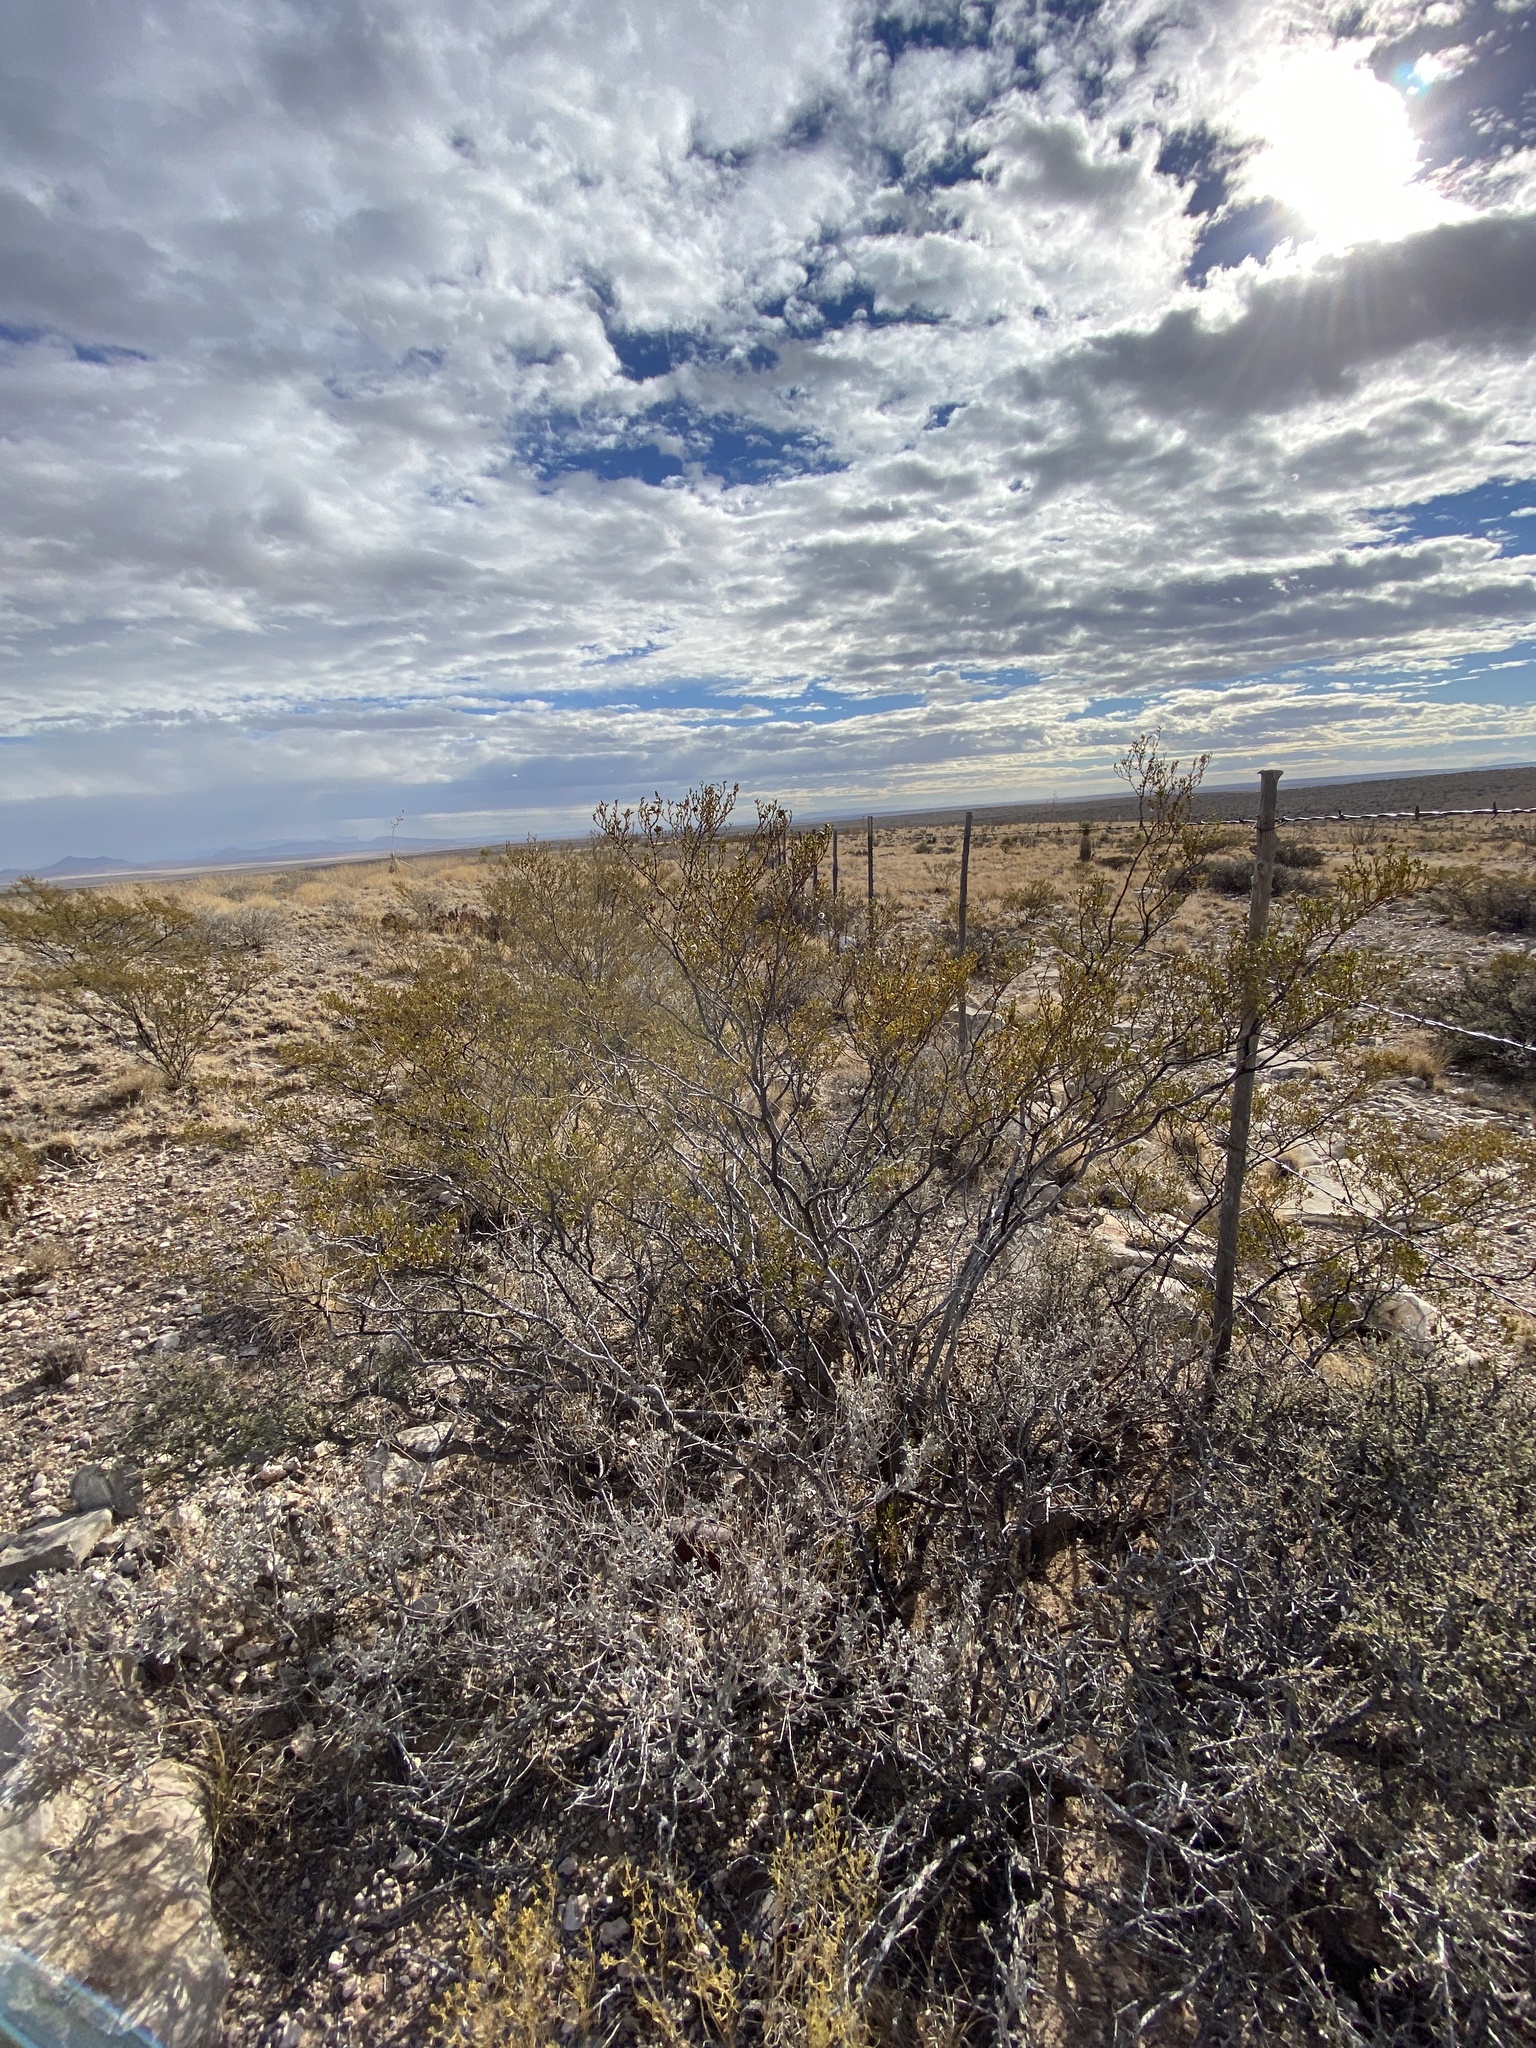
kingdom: Plantae
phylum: Tracheophyta
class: Magnoliopsida
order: Zygophyllales
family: Zygophyllaceae
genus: Larrea
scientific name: Larrea tridentata
